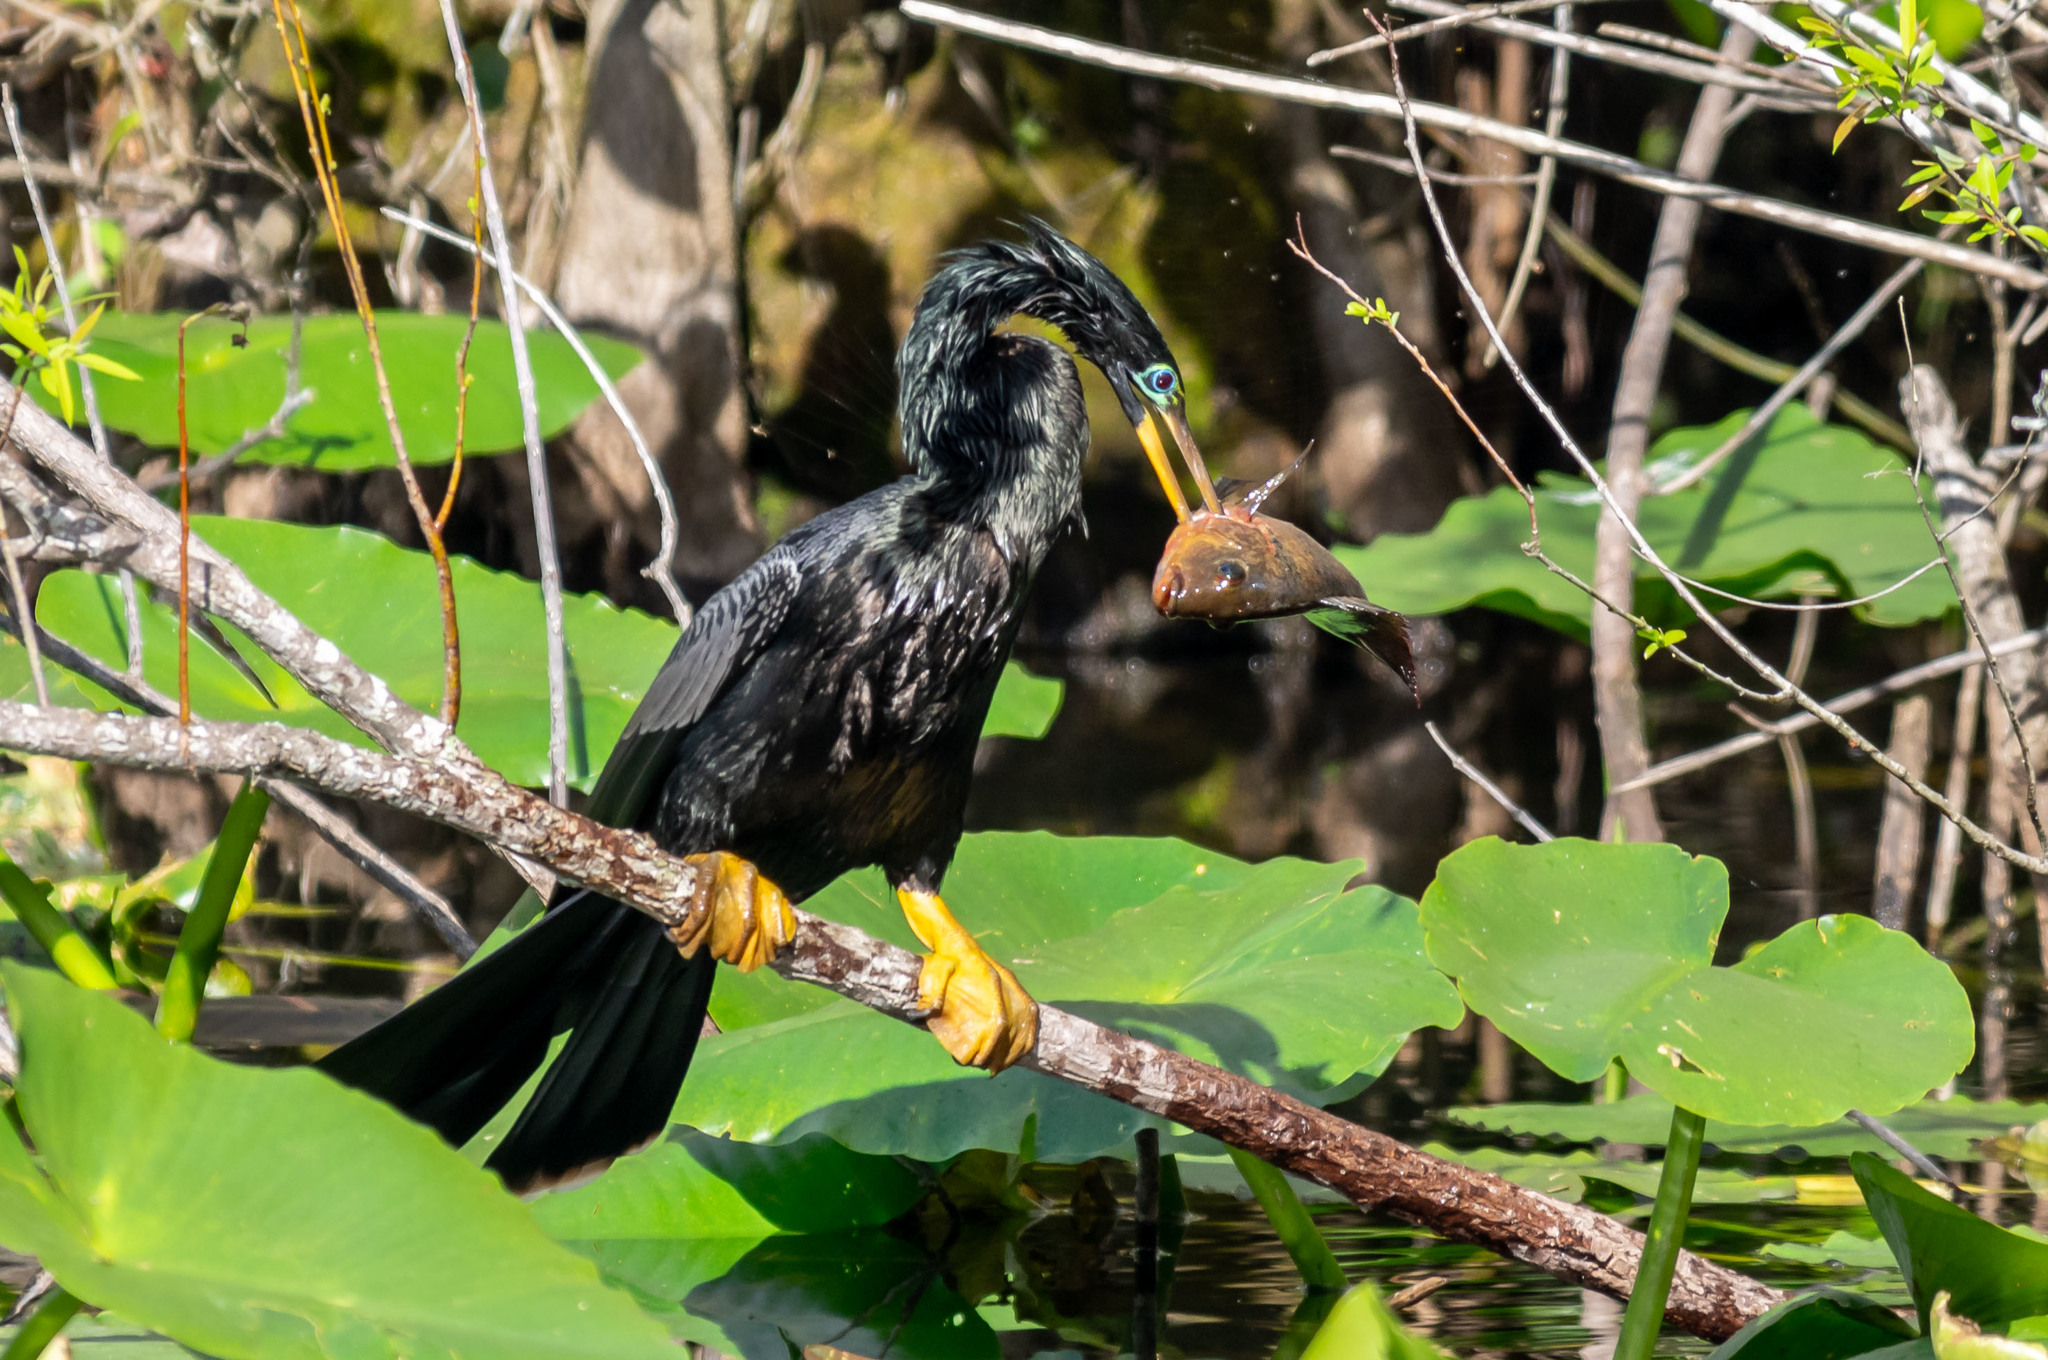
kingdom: Animalia
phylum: Chordata
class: Aves
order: Suliformes
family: Anhingidae
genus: Anhinga
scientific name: Anhinga anhinga
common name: Anhinga
